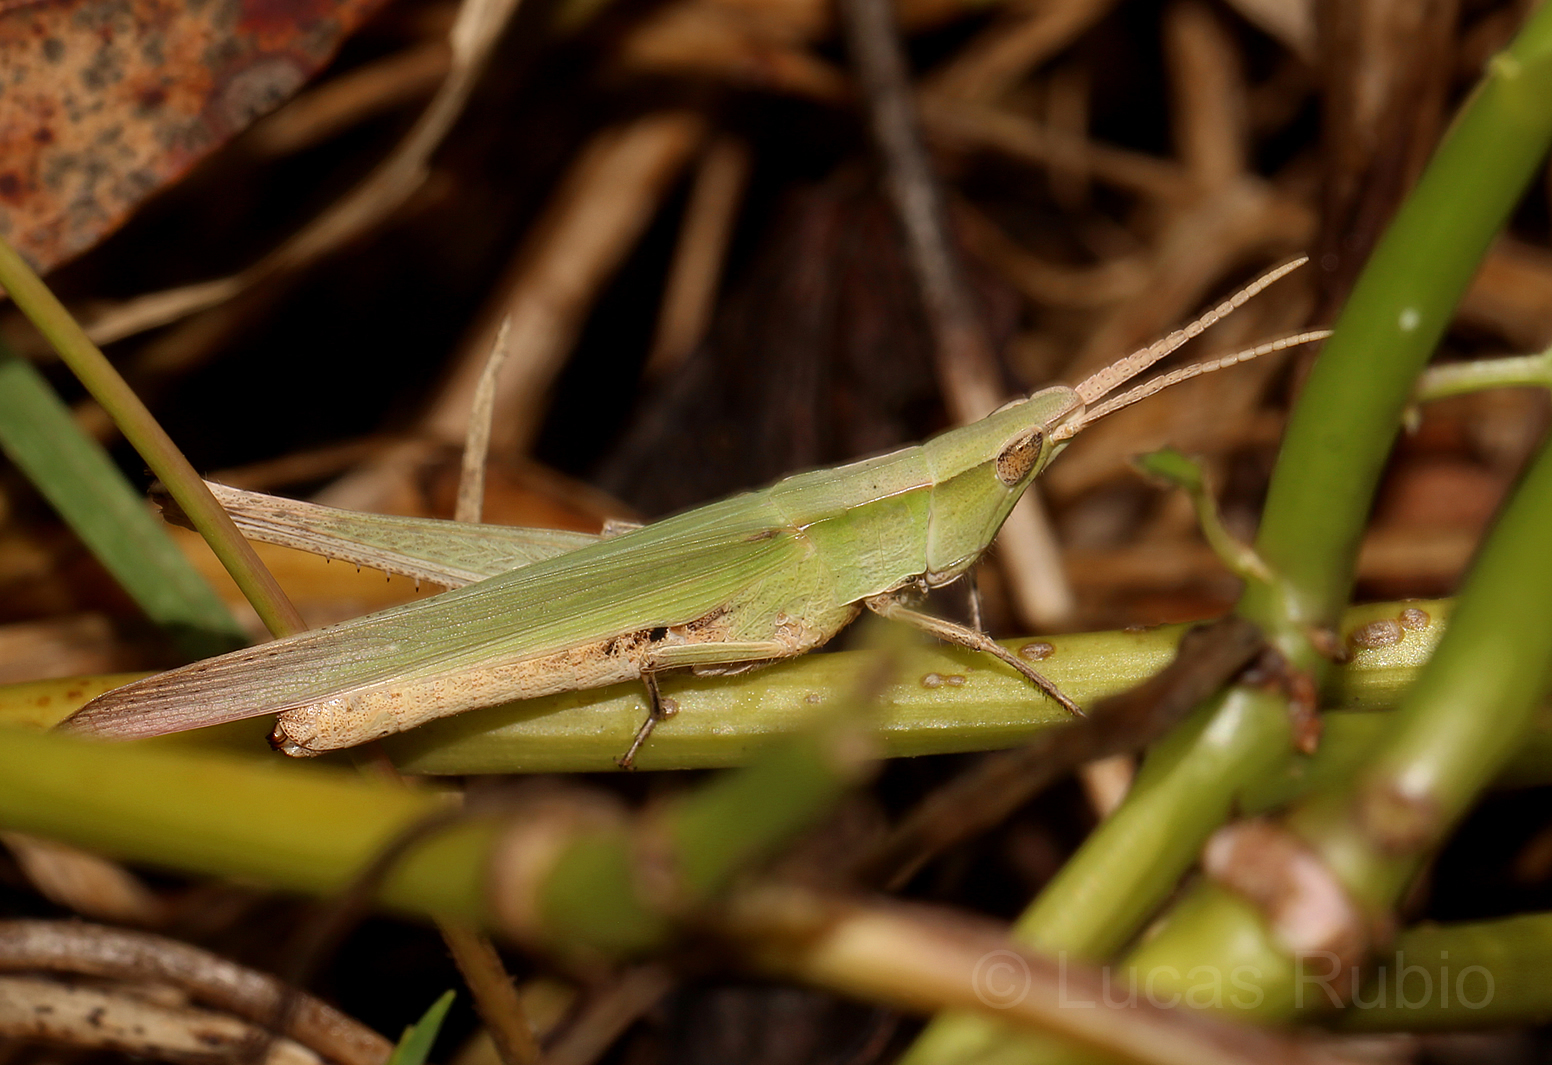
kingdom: Animalia
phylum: Arthropoda
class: Insecta
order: Orthoptera
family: Acrididae
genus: Allotruxalis
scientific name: Allotruxalis gracilis
